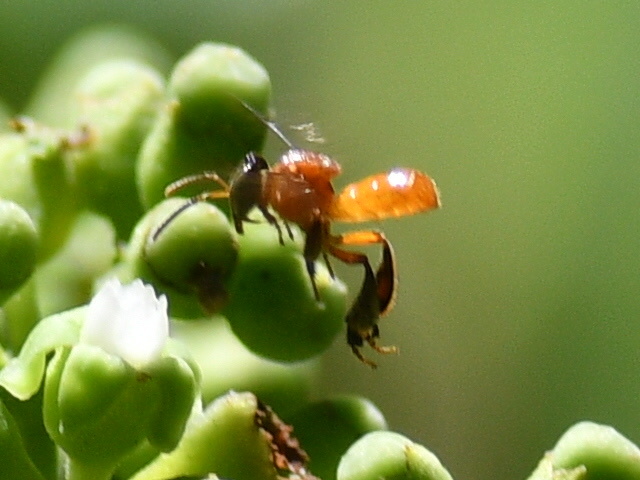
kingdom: Animalia
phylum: Arthropoda
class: Insecta
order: Hymenoptera
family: Apidae
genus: Tetragonula
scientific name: Tetragonula melanocephala
